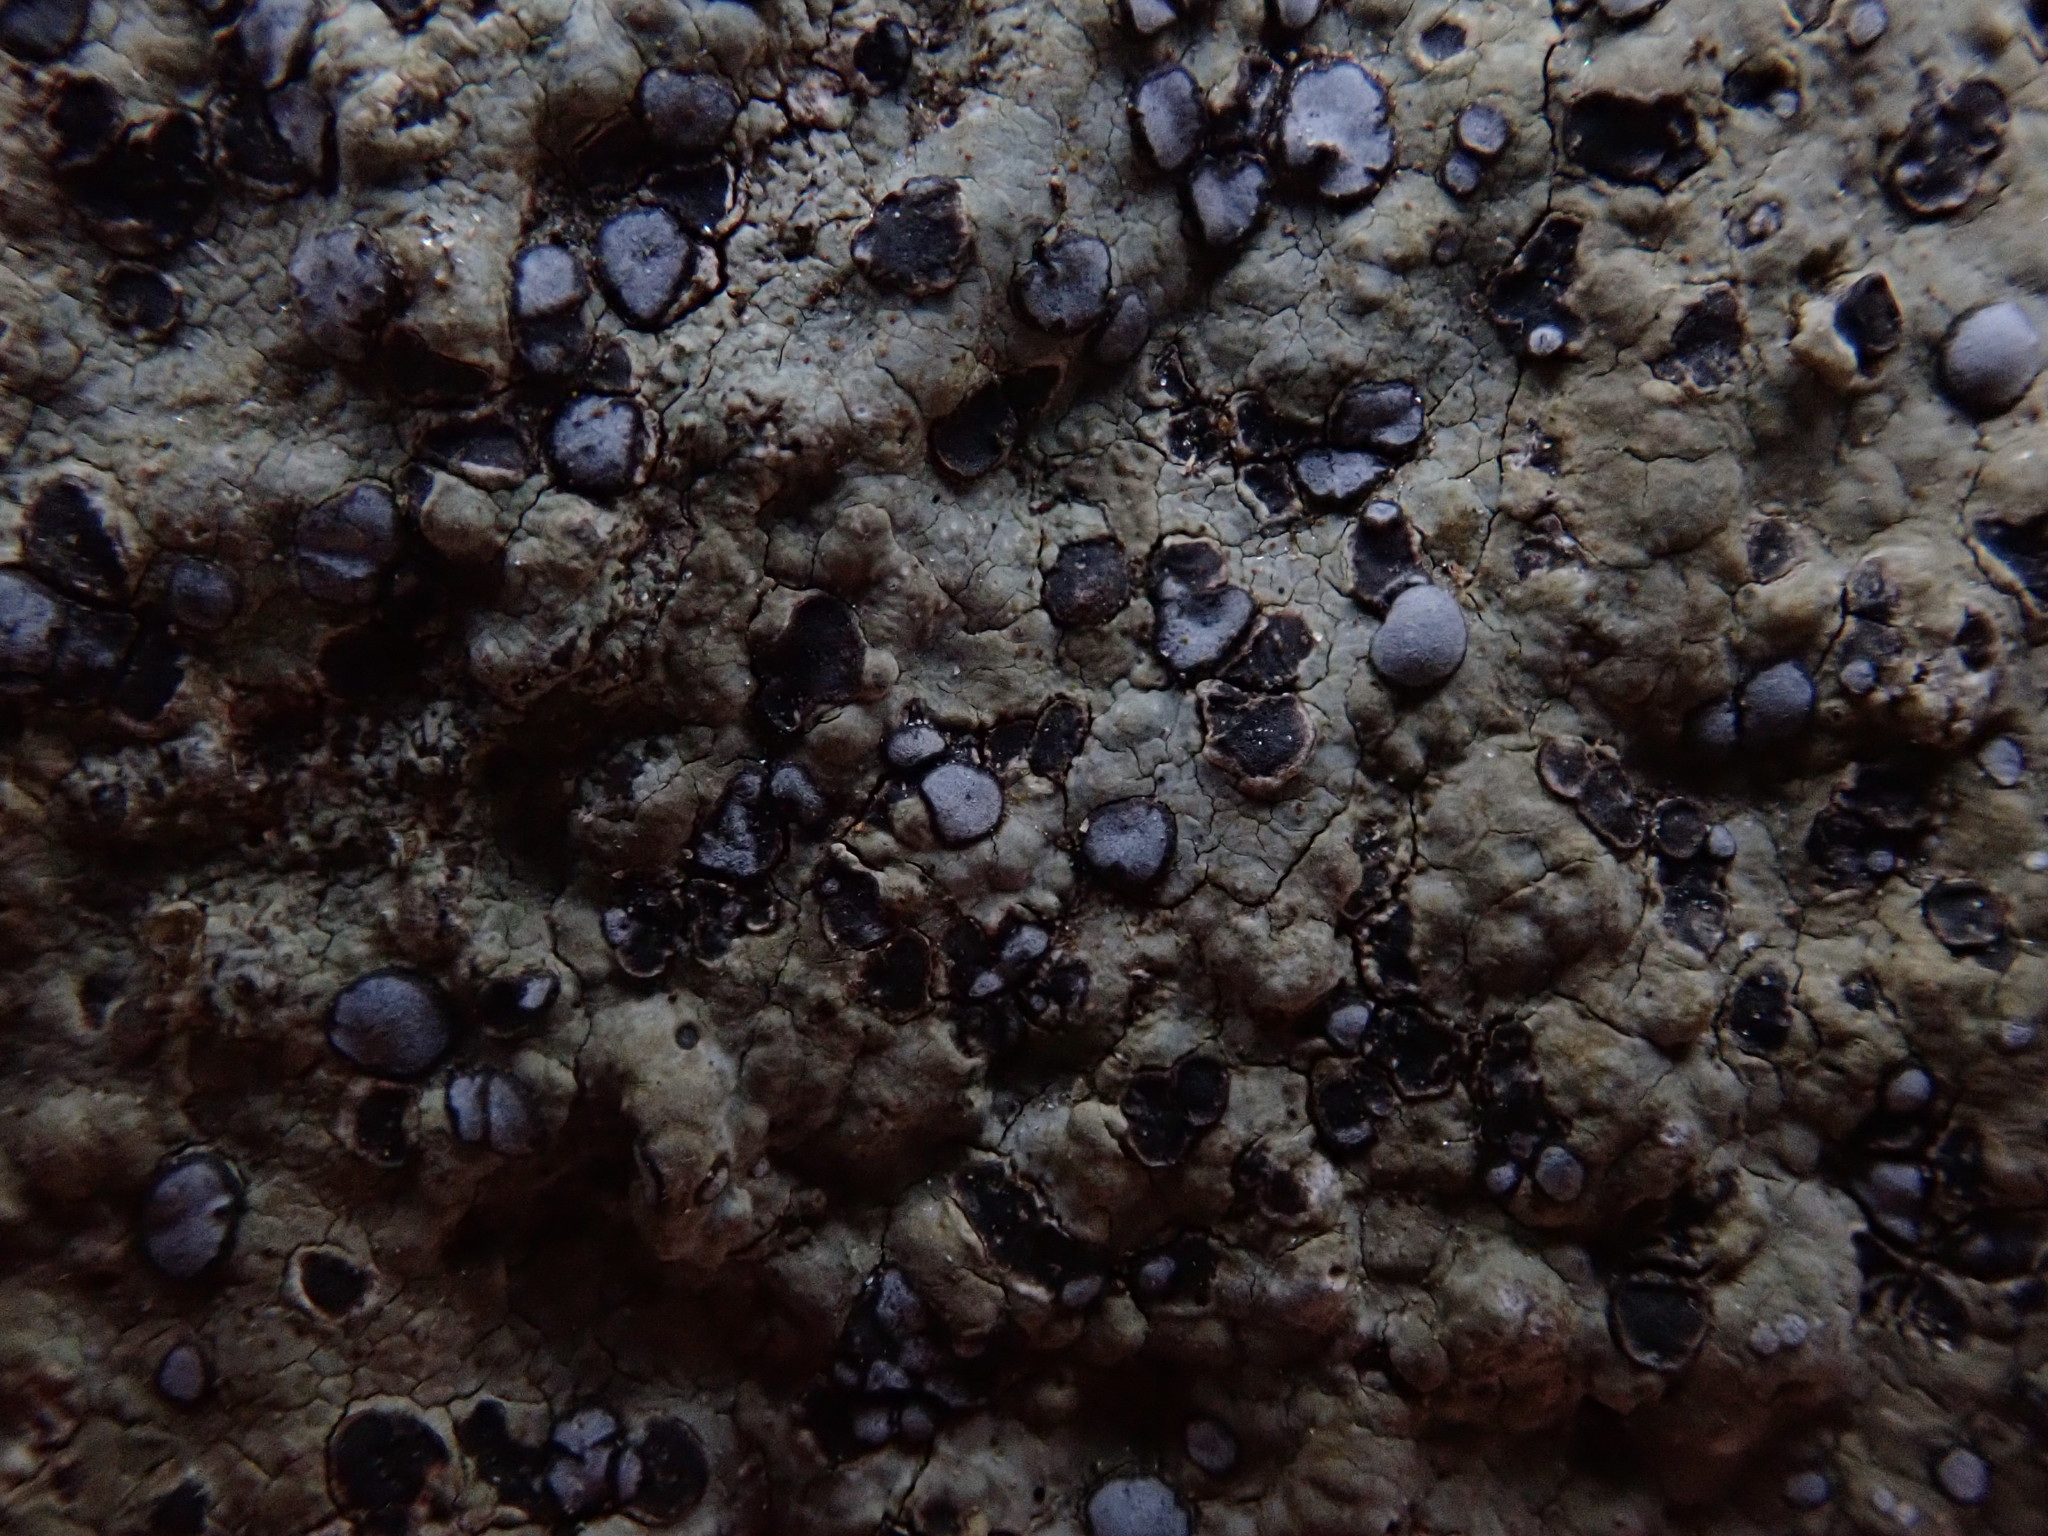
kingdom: Fungi
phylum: Ascomycota
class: Lecanoromycetes
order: Lecideales
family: Lecideaceae
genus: Porpidia
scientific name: Porpidia albocaerulescens
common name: Smokey-eyed boulder lichen
